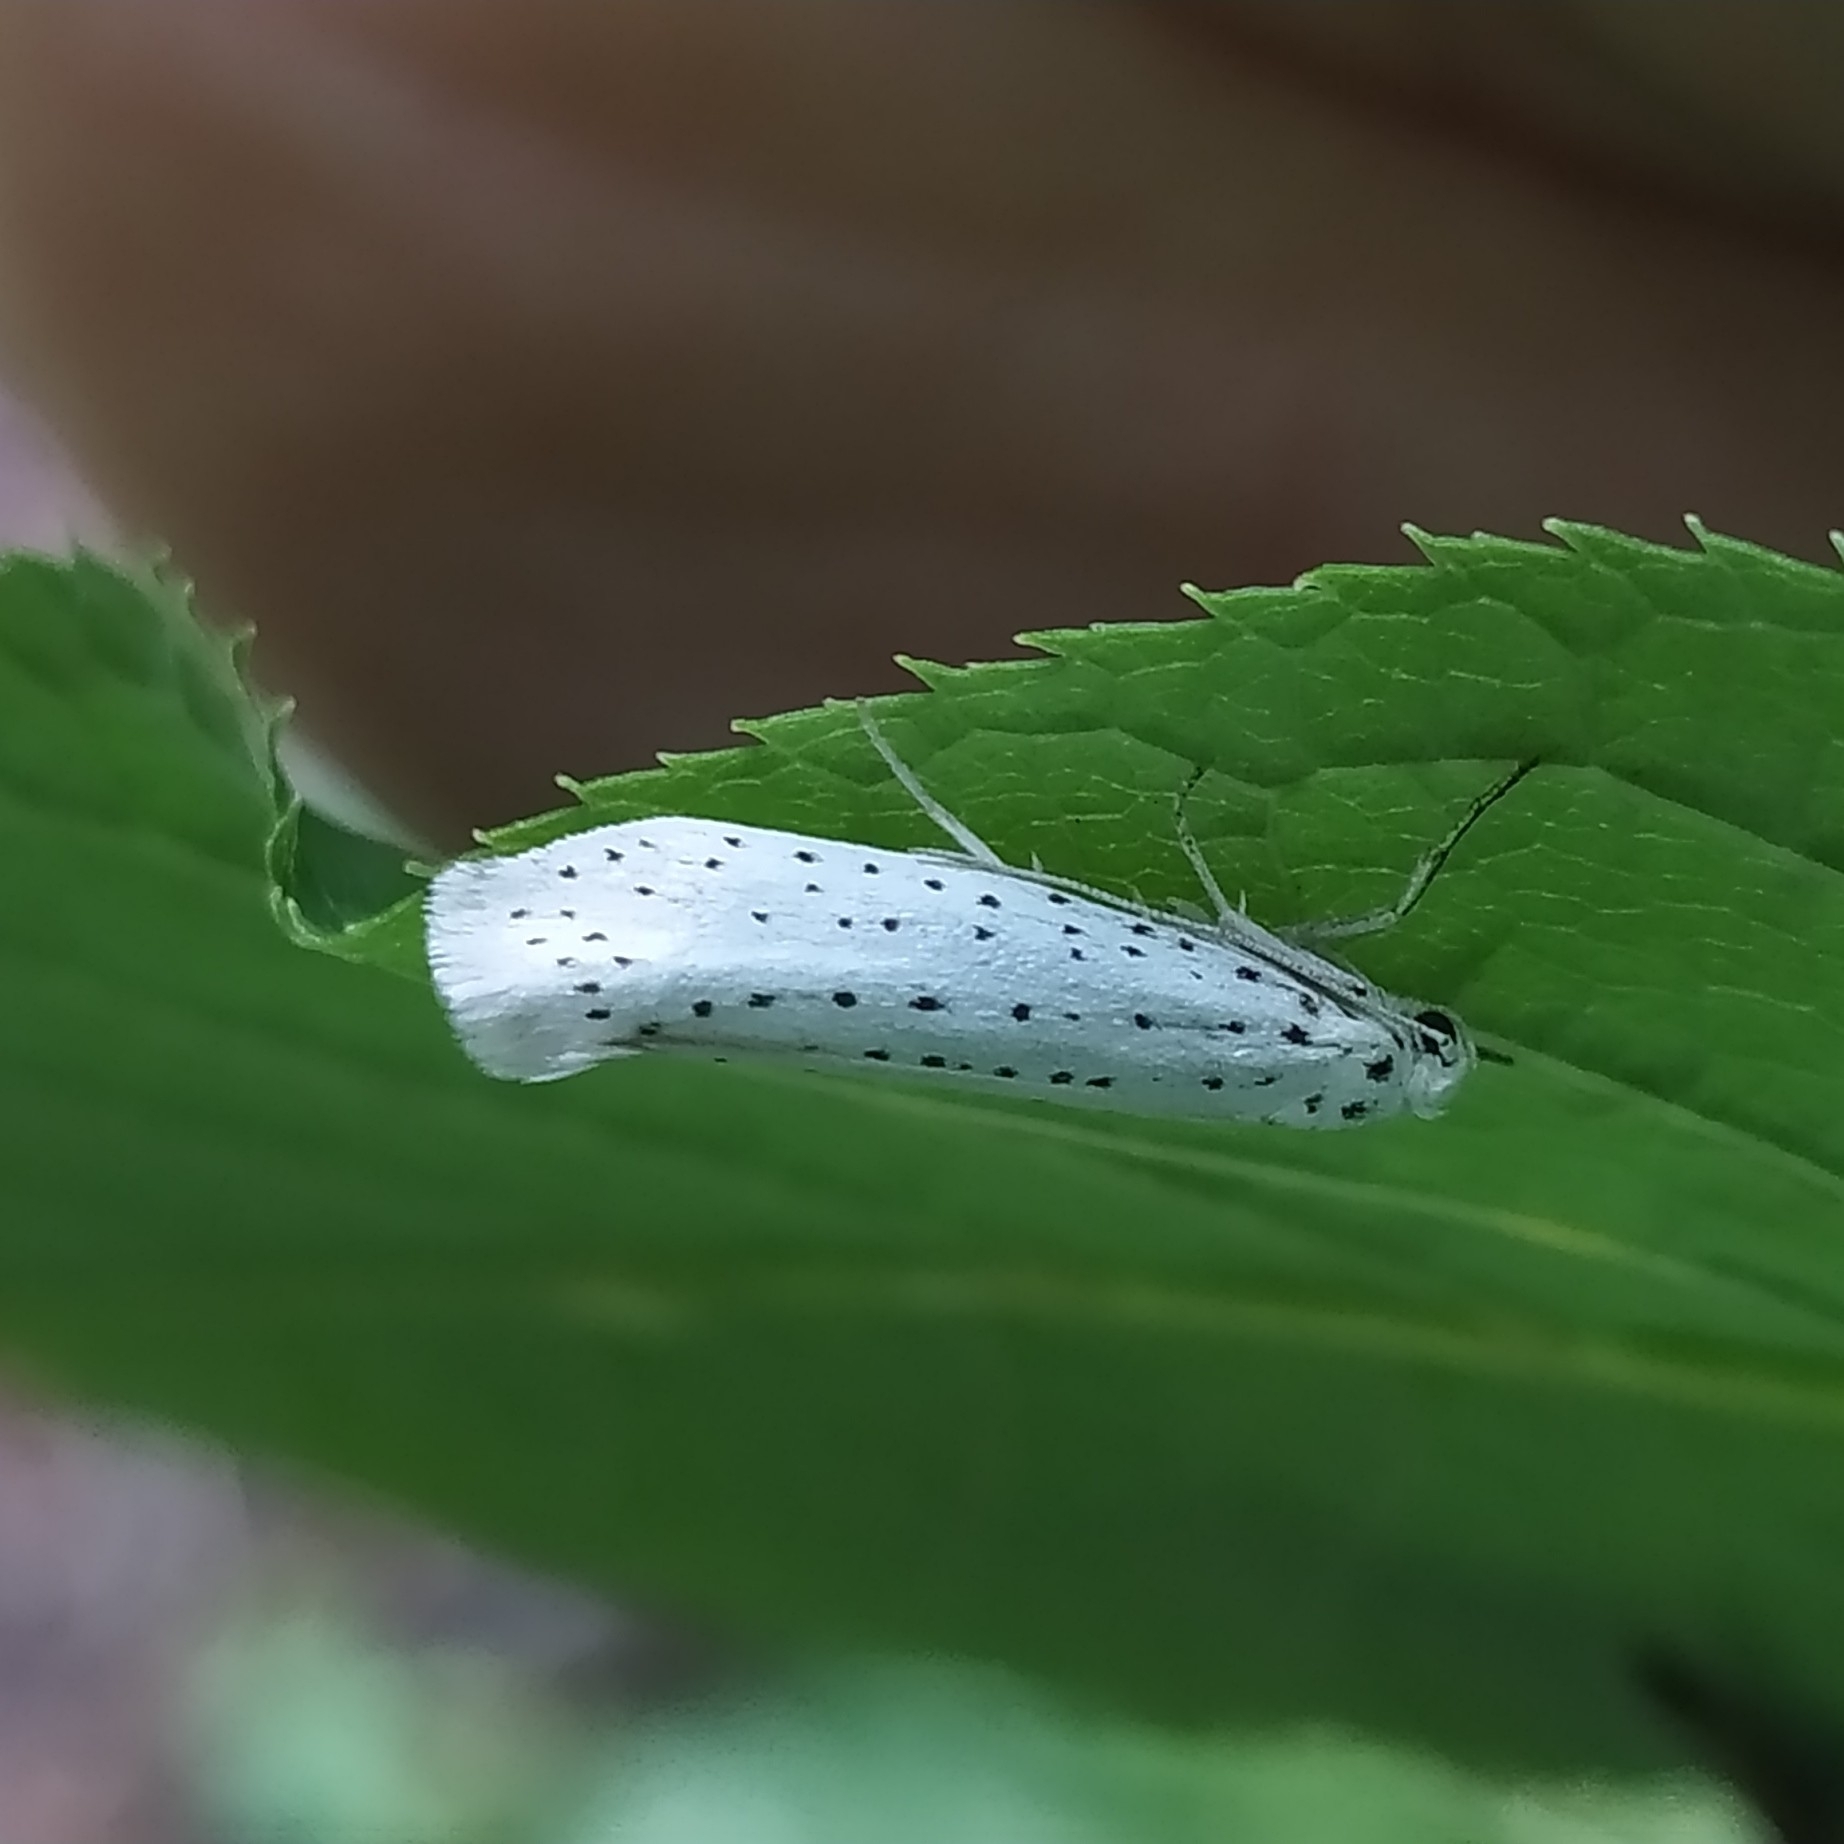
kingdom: Animalia
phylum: Arthropoda
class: Insecta
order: Lepidoptera
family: Yponomeutidae
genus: Yponomeuta
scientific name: Yponomeuta evonymella
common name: Bird-cherry ermine
